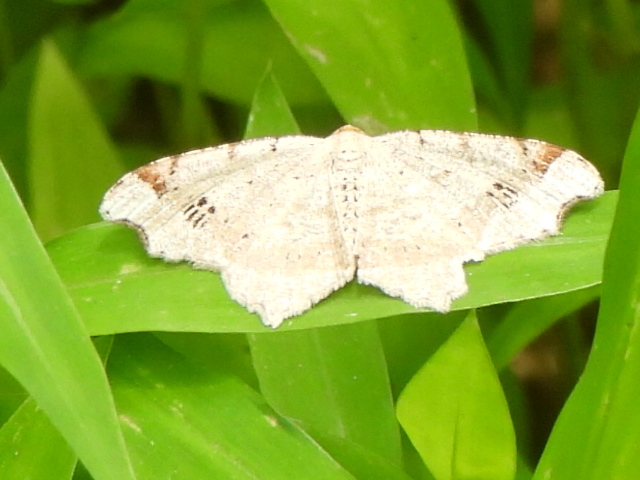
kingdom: Animalia
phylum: Arthropoda
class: Insecta
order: Lepidoptera
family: Geometridae
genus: Macaria
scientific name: Macaria aemulataria
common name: Common angle
